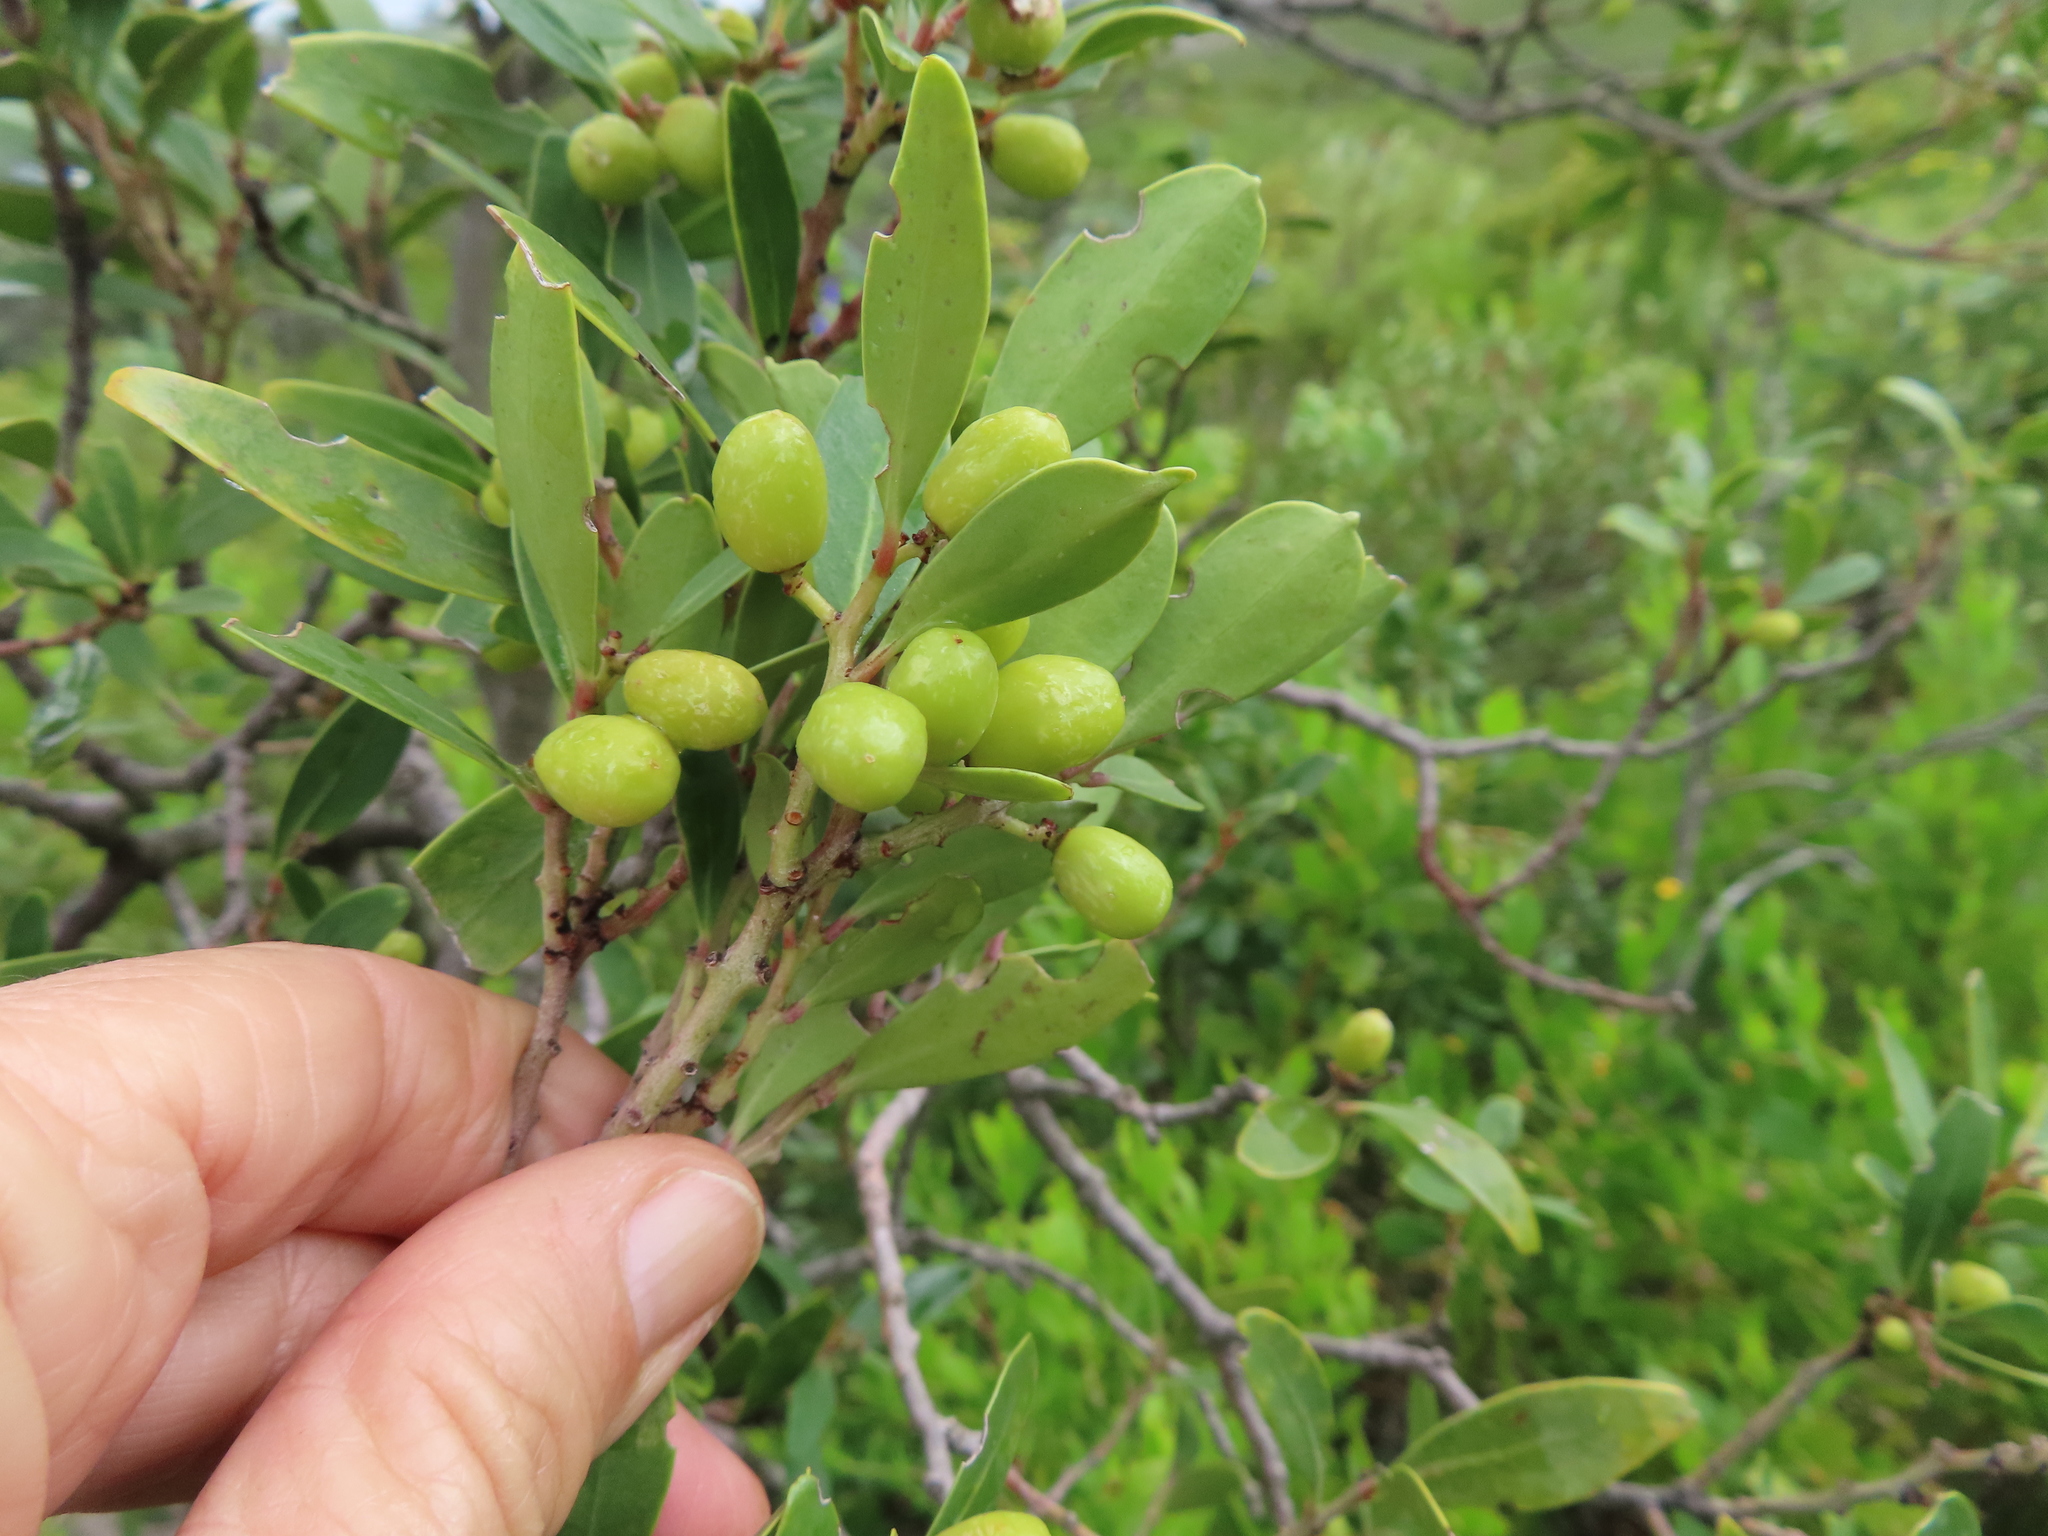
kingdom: Plantae
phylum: Tracheophyta
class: Magnoliopsida
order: Celastrales
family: Celastraceae
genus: Gymnosporia
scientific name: Gymnosporia laurina
